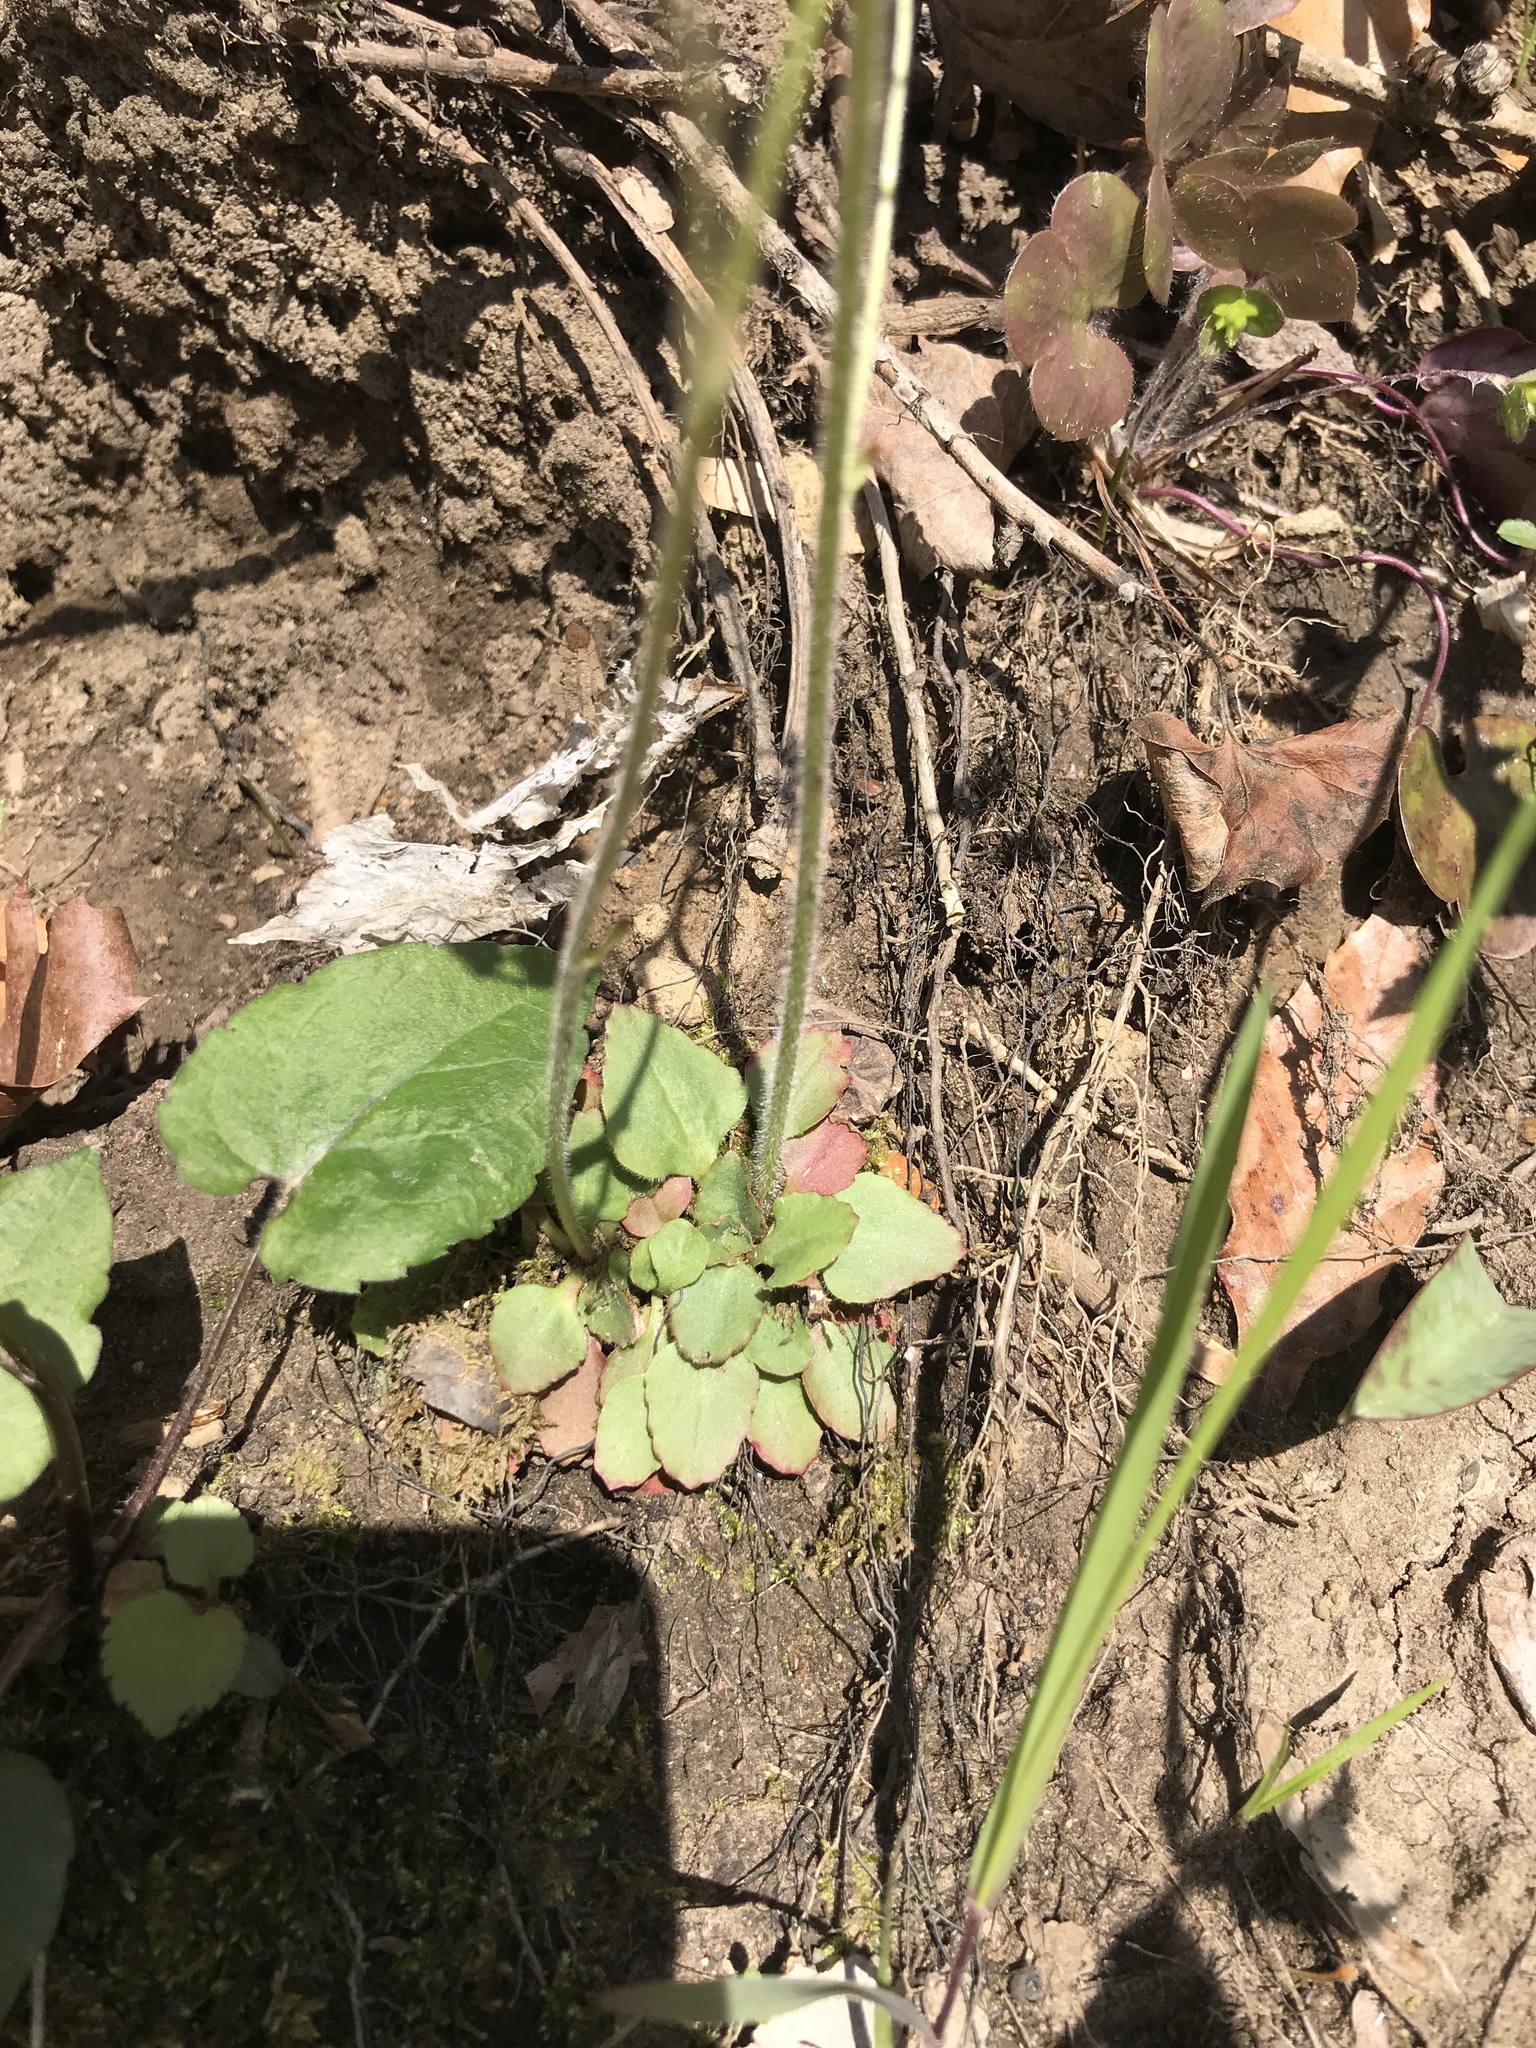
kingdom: Plantae
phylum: Tracheophyta
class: Magnoliopsida
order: Saxifragales
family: Saxifragaceae
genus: Micranthes
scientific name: Micranthes virginiensis
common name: Early saxifrage
